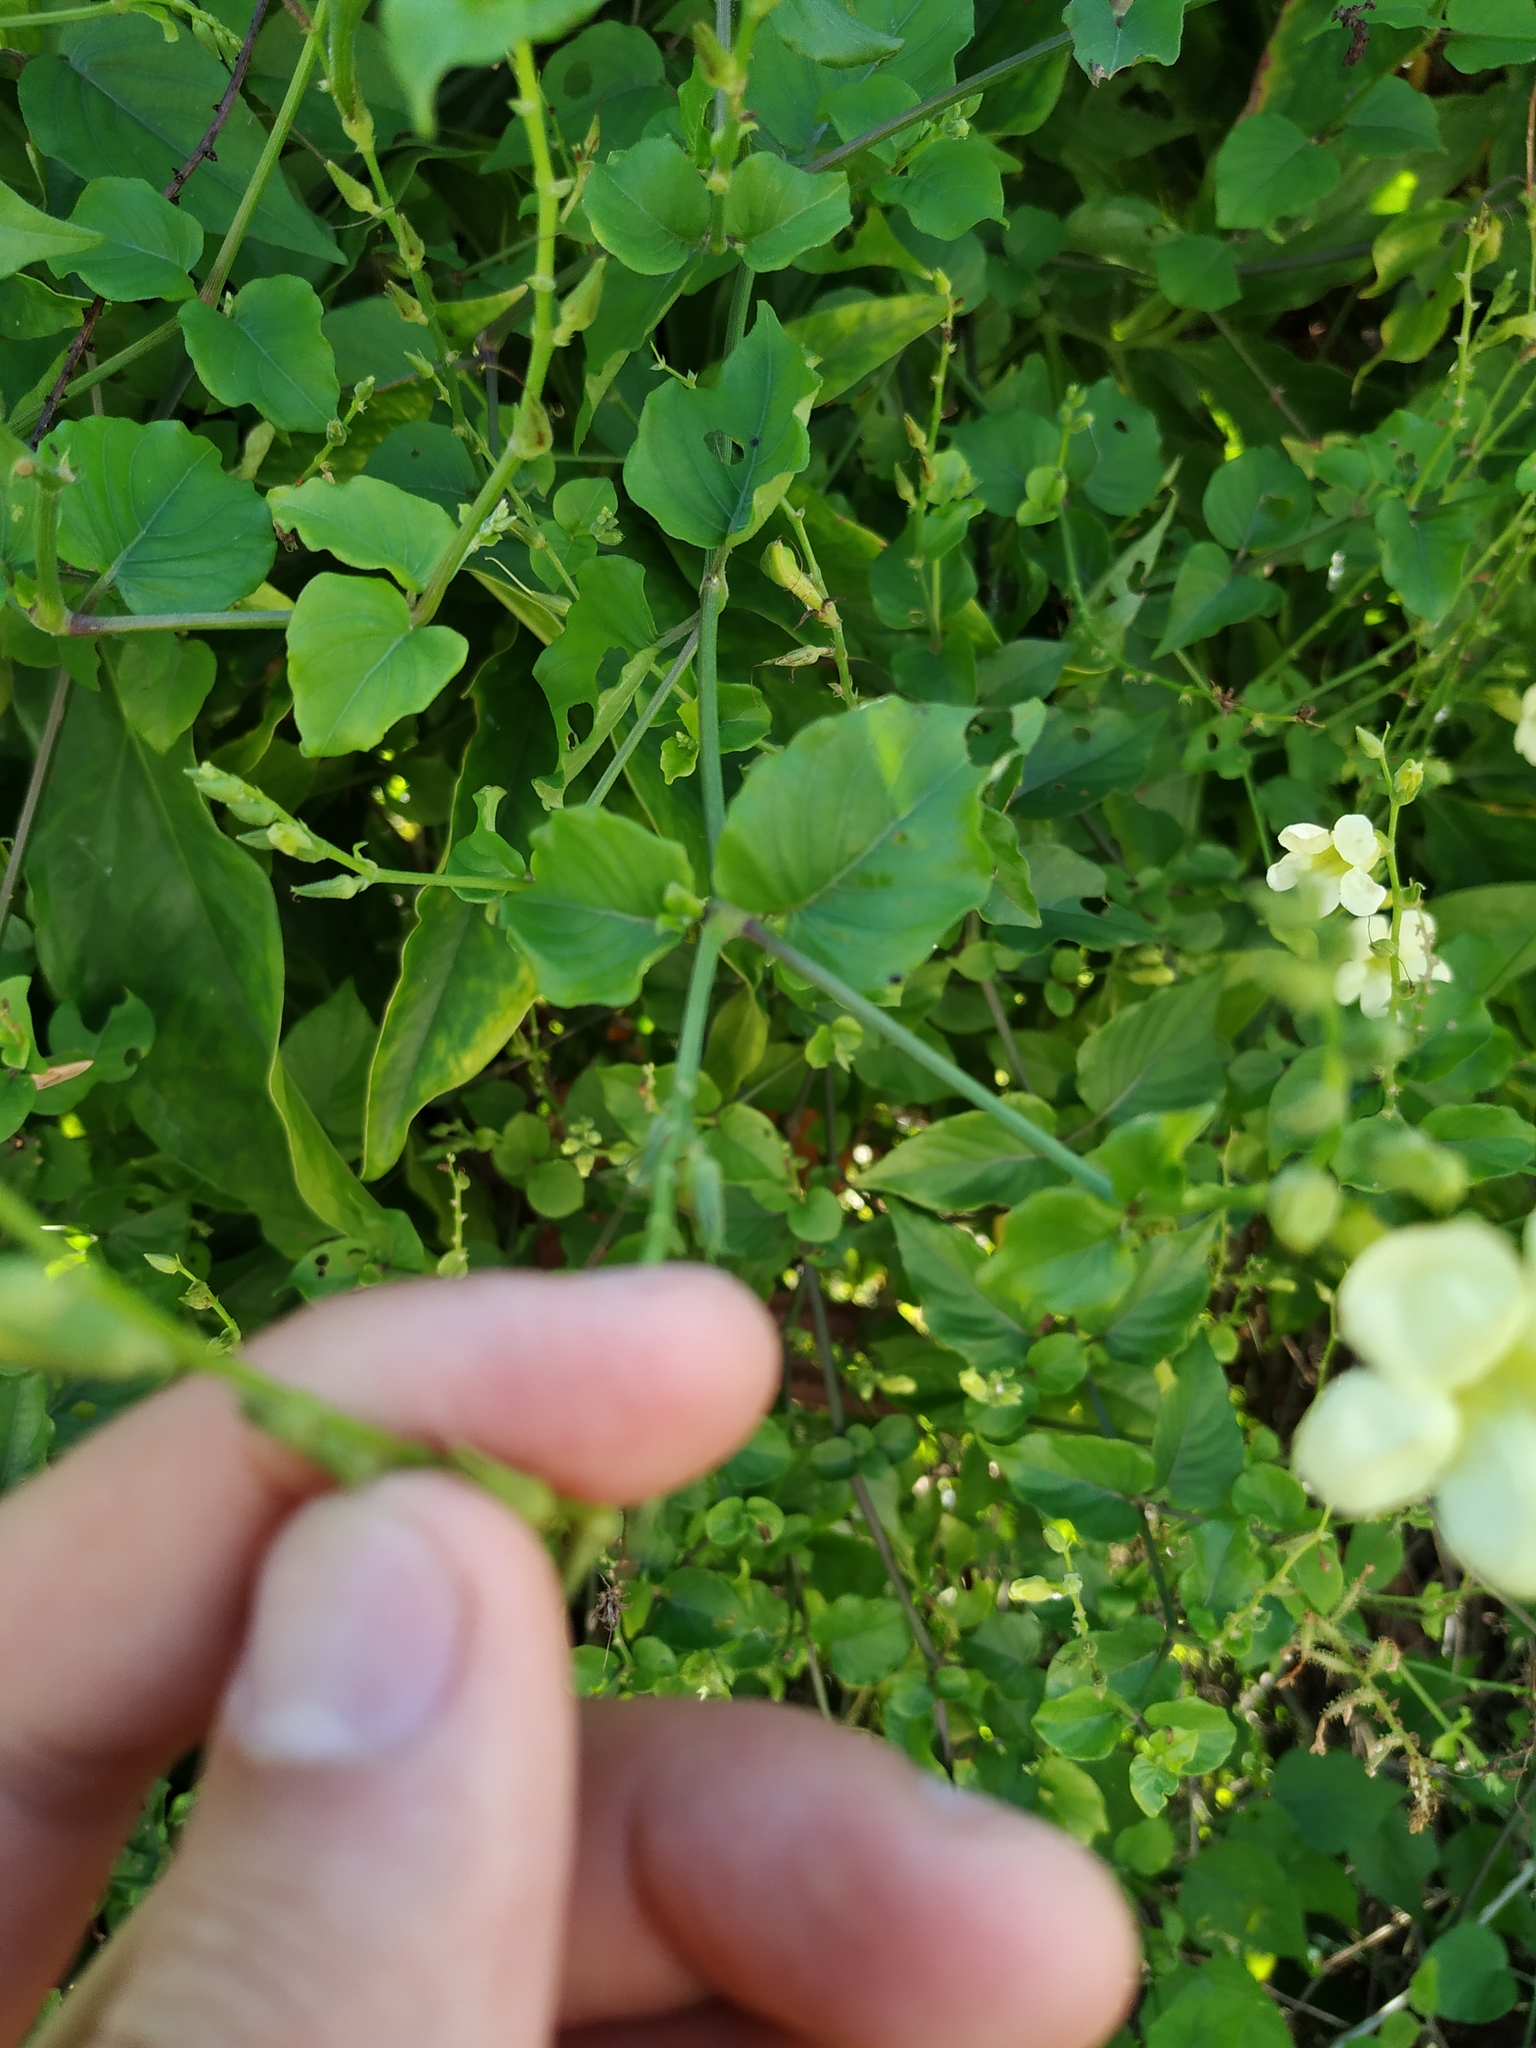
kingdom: Plantae
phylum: Tracheophyta
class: Magnoliopsida
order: Lamiales
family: Acanthaceae
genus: Asystasia
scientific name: Asystasia gangetica
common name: Chinese violet
